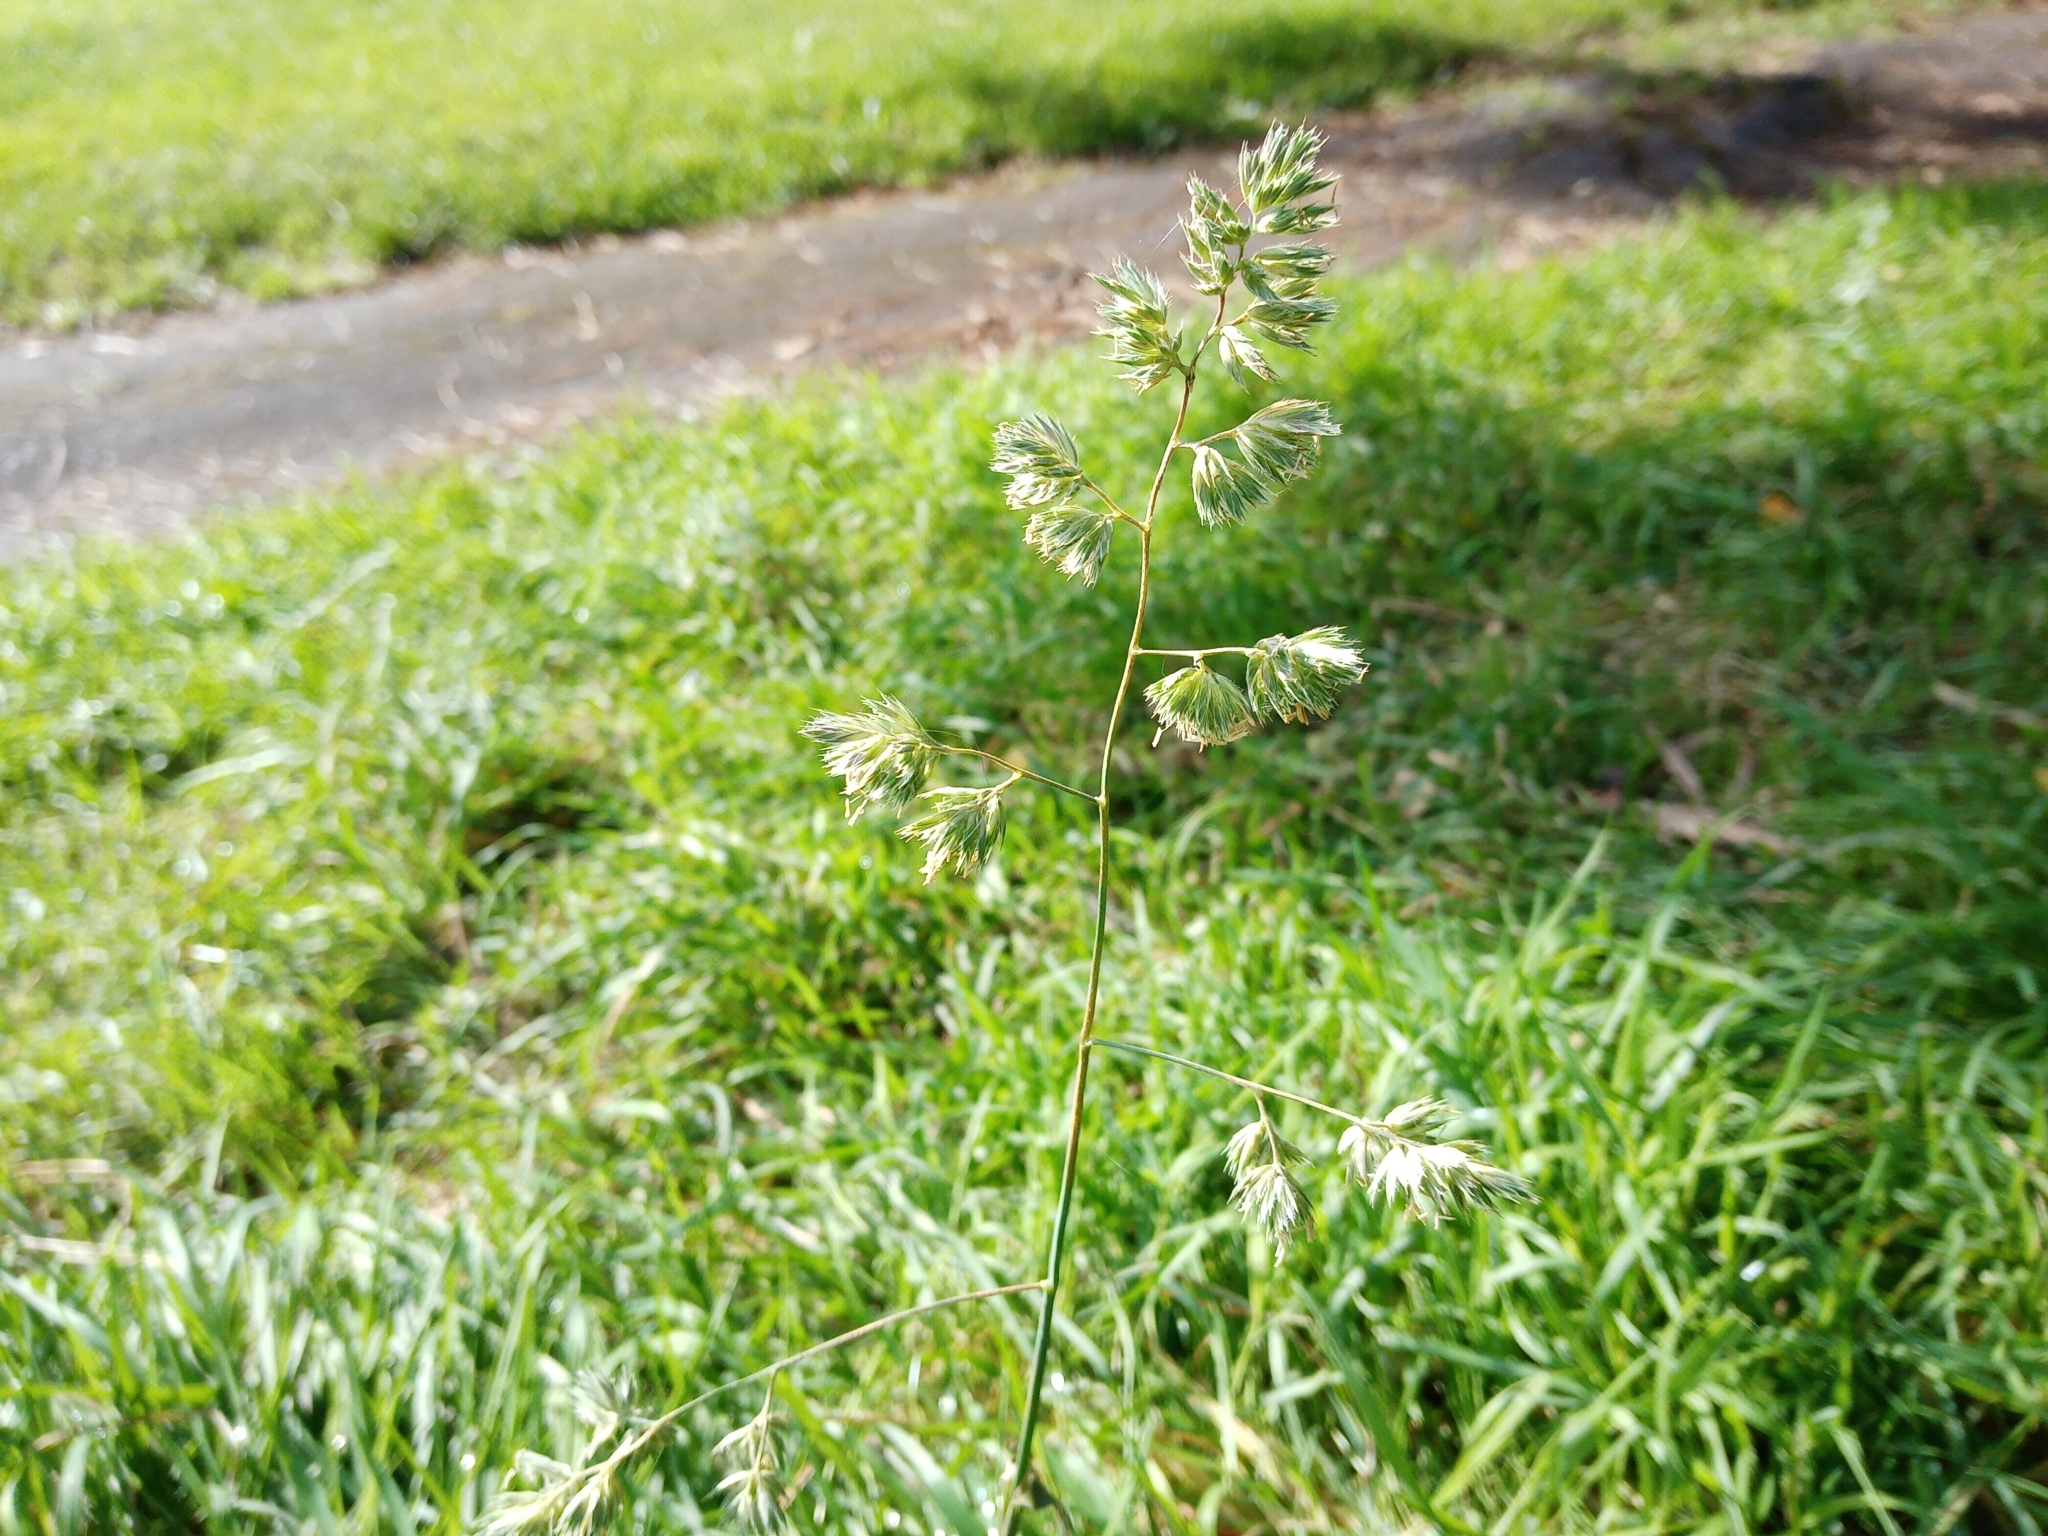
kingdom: Plantae
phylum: Tracheophyta
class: Liliopsida
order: Poales
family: Poaceae
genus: Dactylis
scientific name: Dactylis glomerata
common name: Orchardgrass
